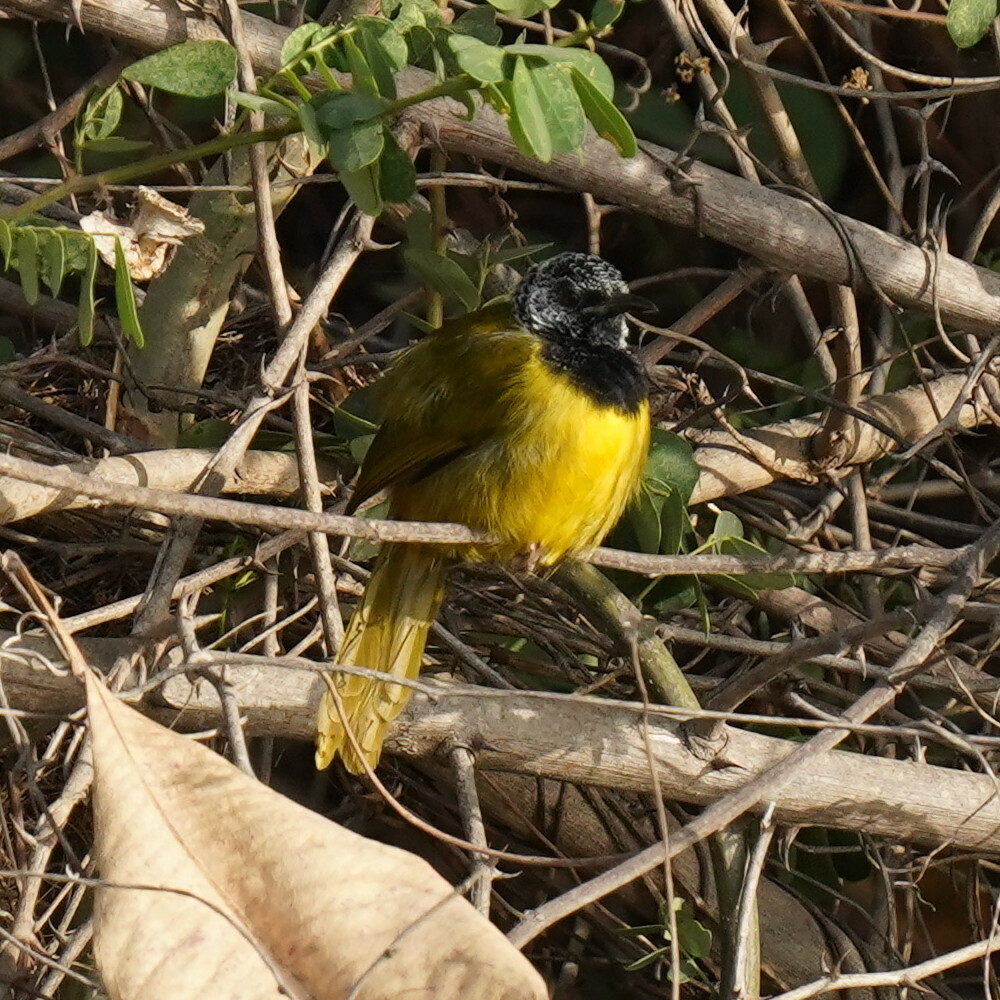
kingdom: Animalia
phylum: Chordata
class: Aves
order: Passeriformes
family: Cisticolidae
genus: Hypergerus
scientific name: Hypergerus atriceps
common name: Oriole warbler
